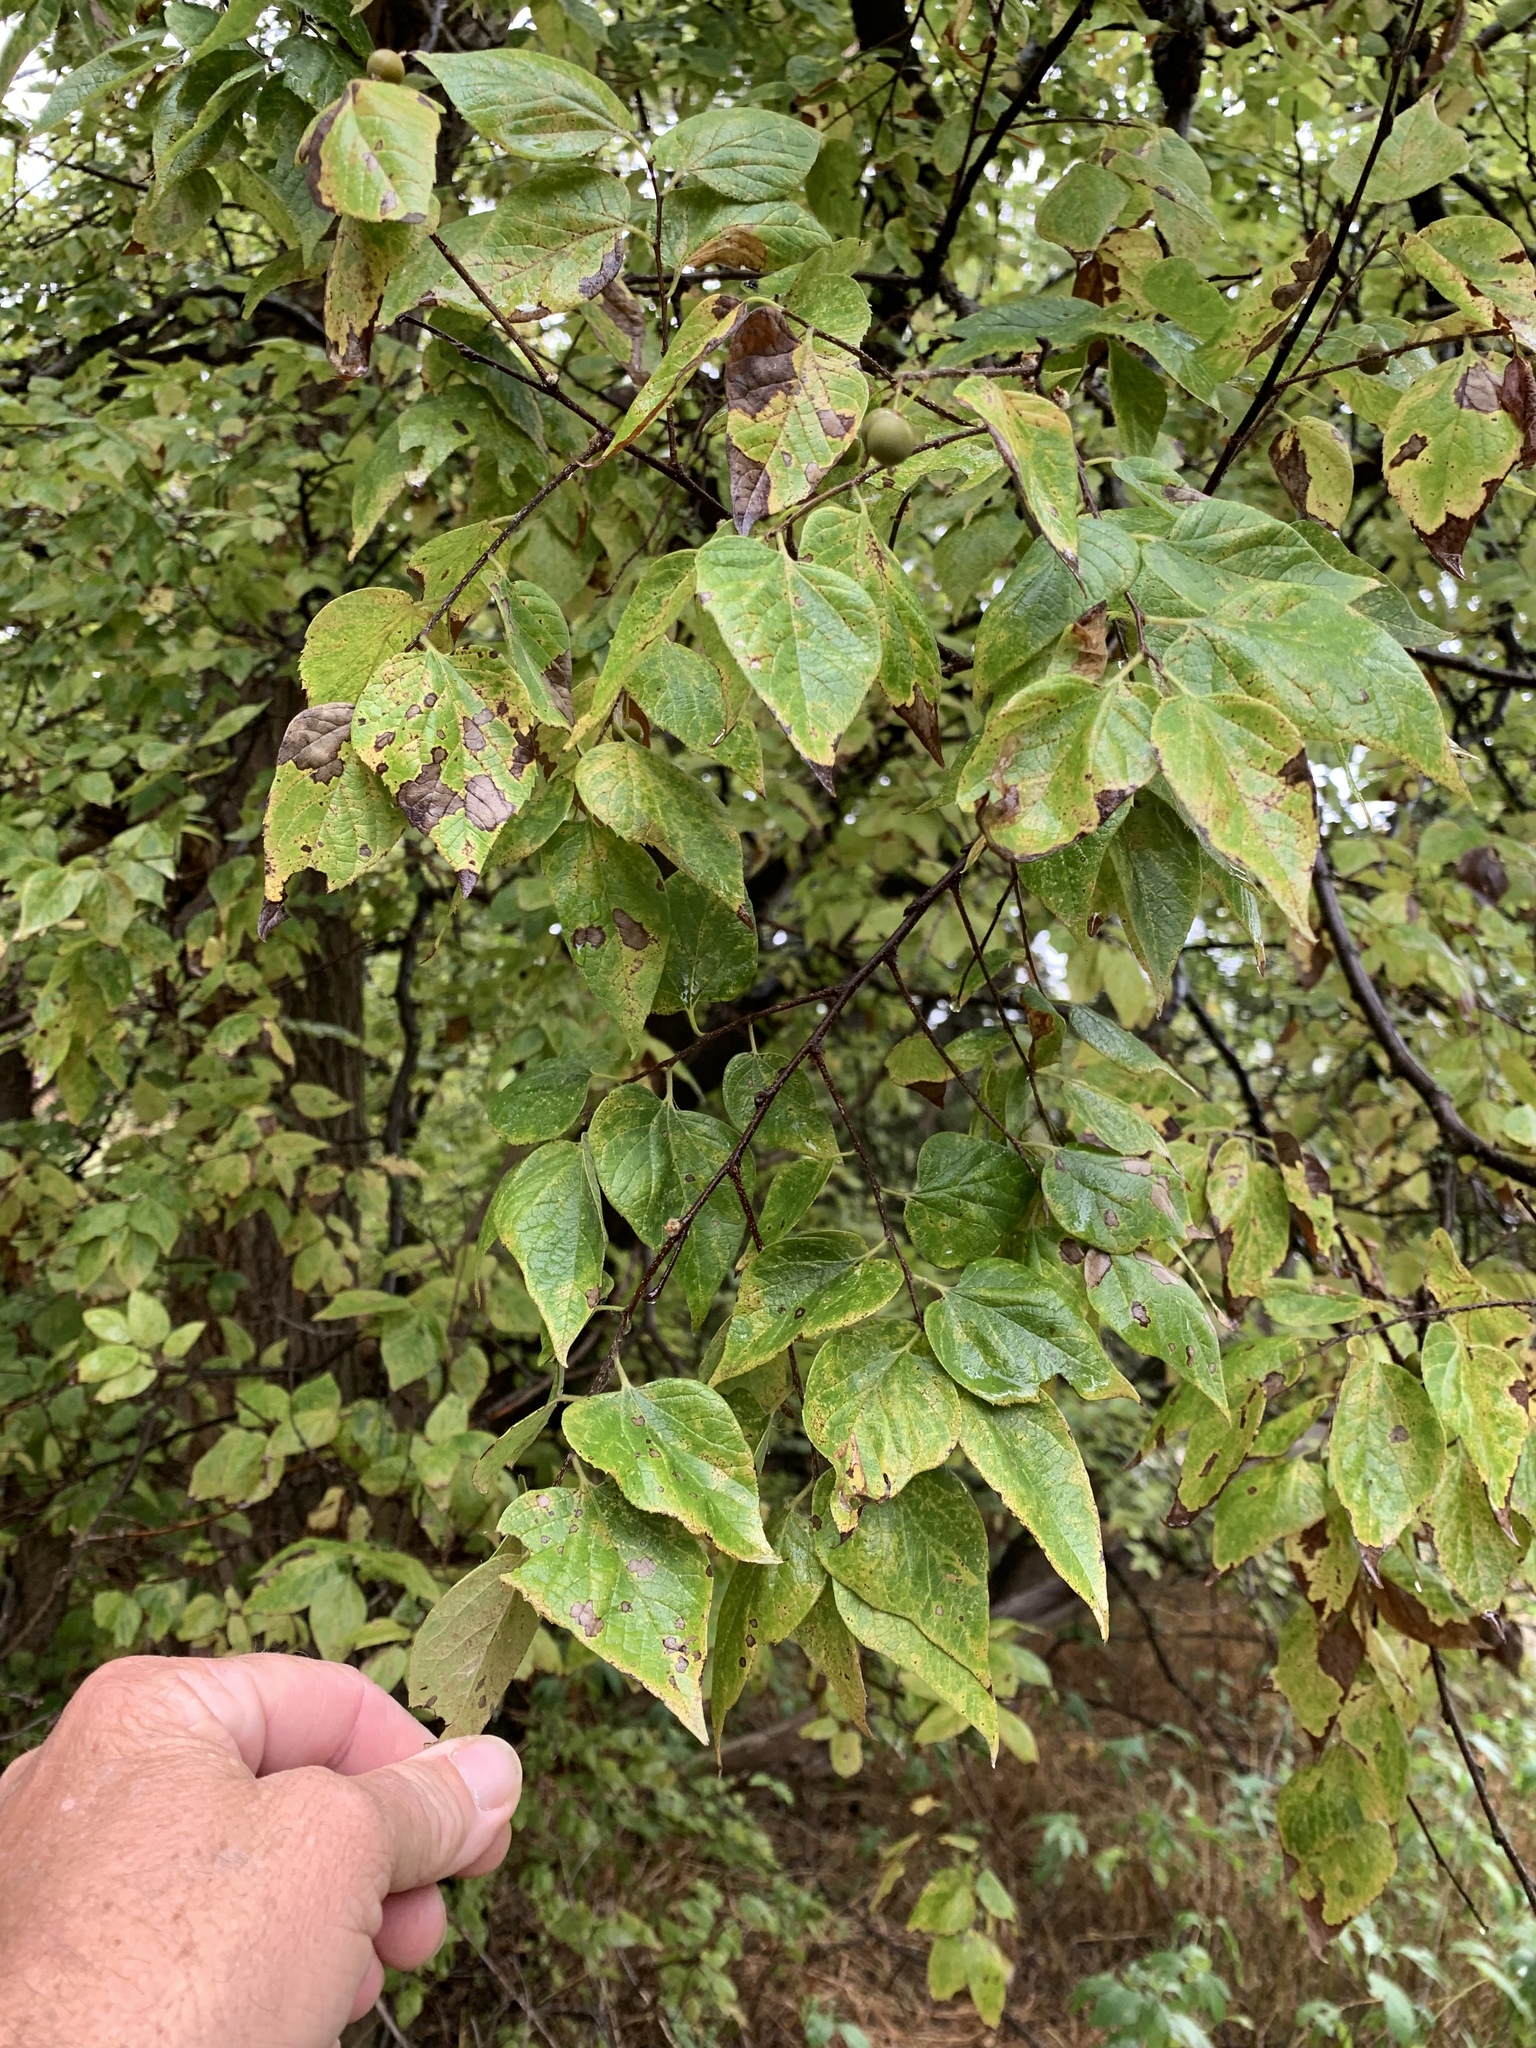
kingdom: Plantae
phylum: Tracheophyta
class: Magnoliopsida
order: Rosales
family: Cannabaceae
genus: Celtis
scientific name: Celtis occidentalis
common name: Common hackberry
